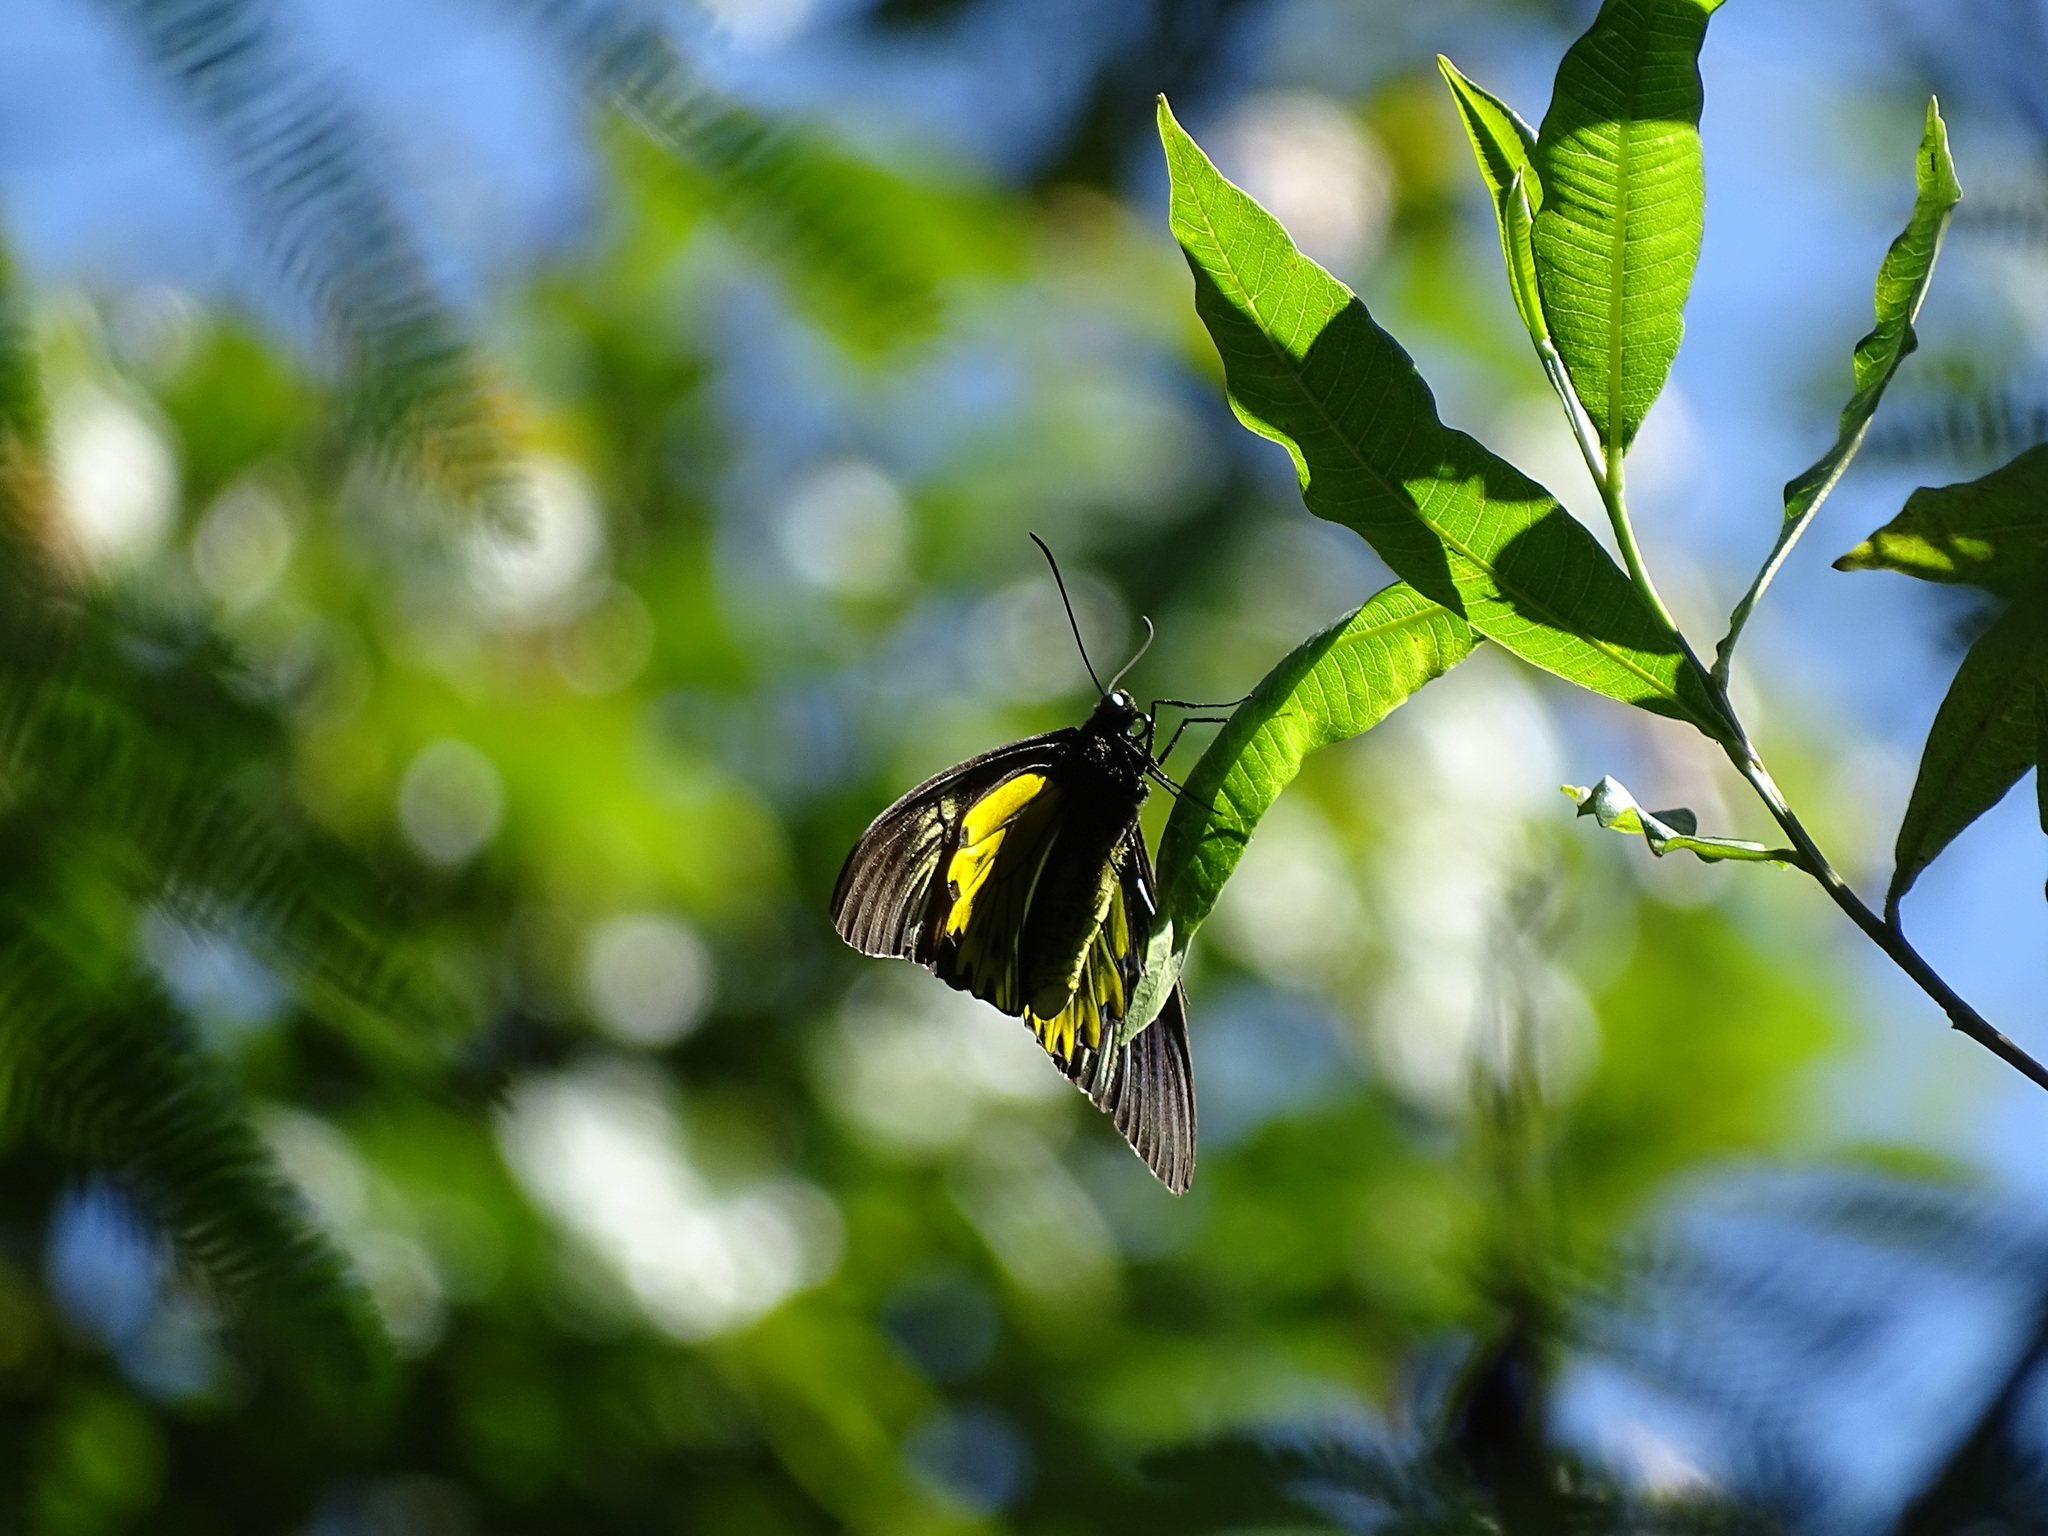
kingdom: Animalia
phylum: Arthropoda
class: Insecta
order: Lepidoptera
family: Papilionidae
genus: Troides
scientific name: Troides helena
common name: Common birdwing
